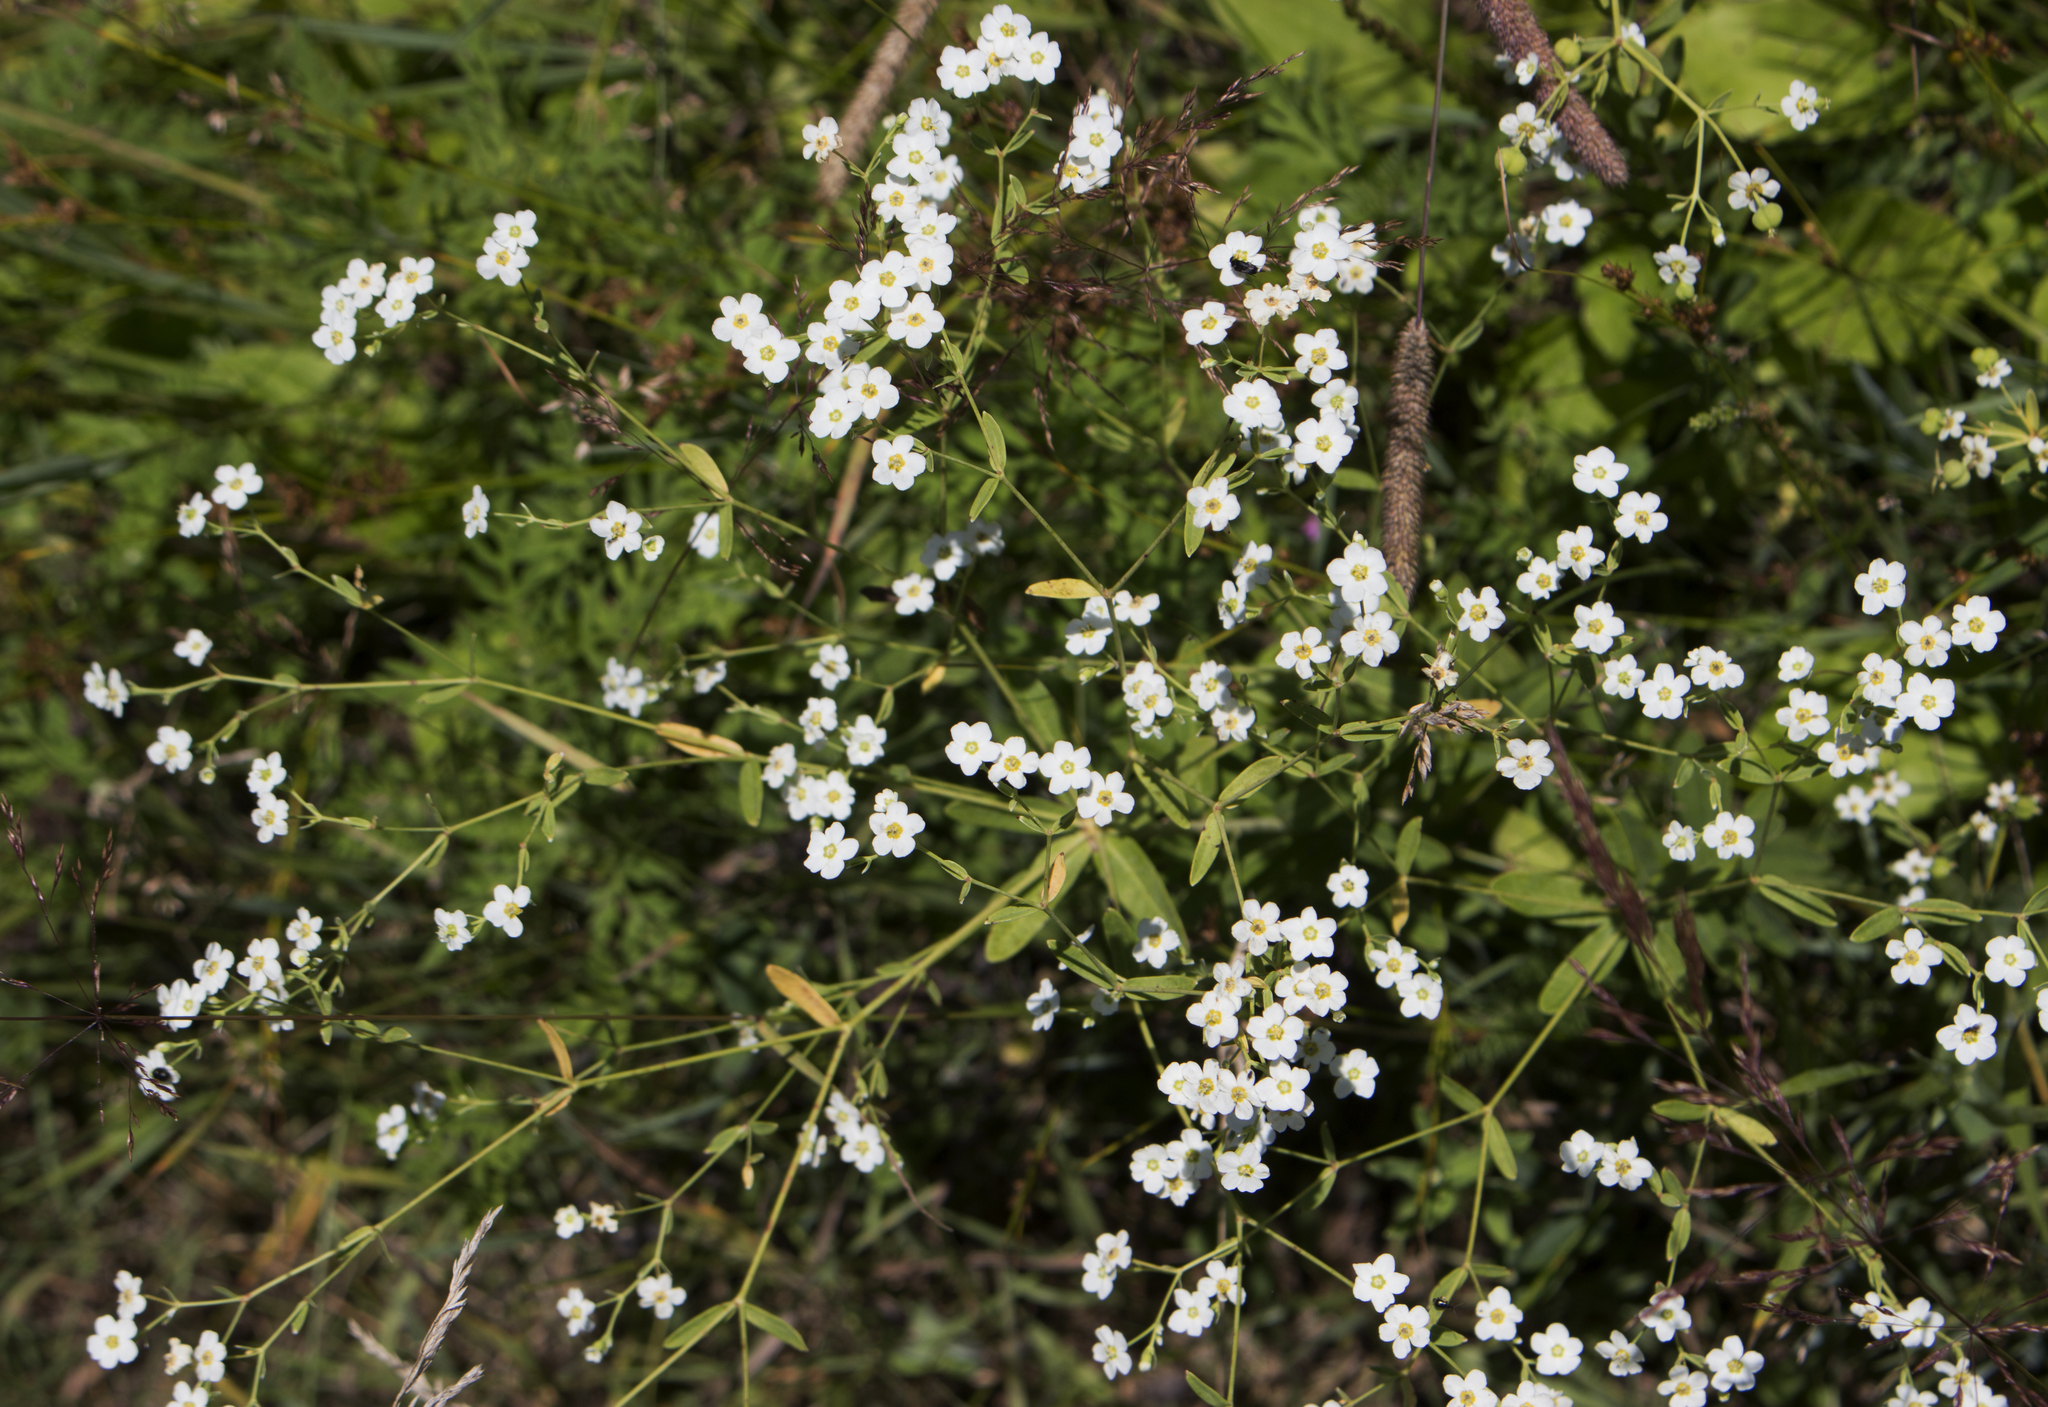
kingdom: Plantae
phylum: Tracheophyta
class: Magnoliopsida
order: Malpighiales
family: Euphorbiaceae
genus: Euphorbia
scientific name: Euphorbia corollata
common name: Flowering spurge
